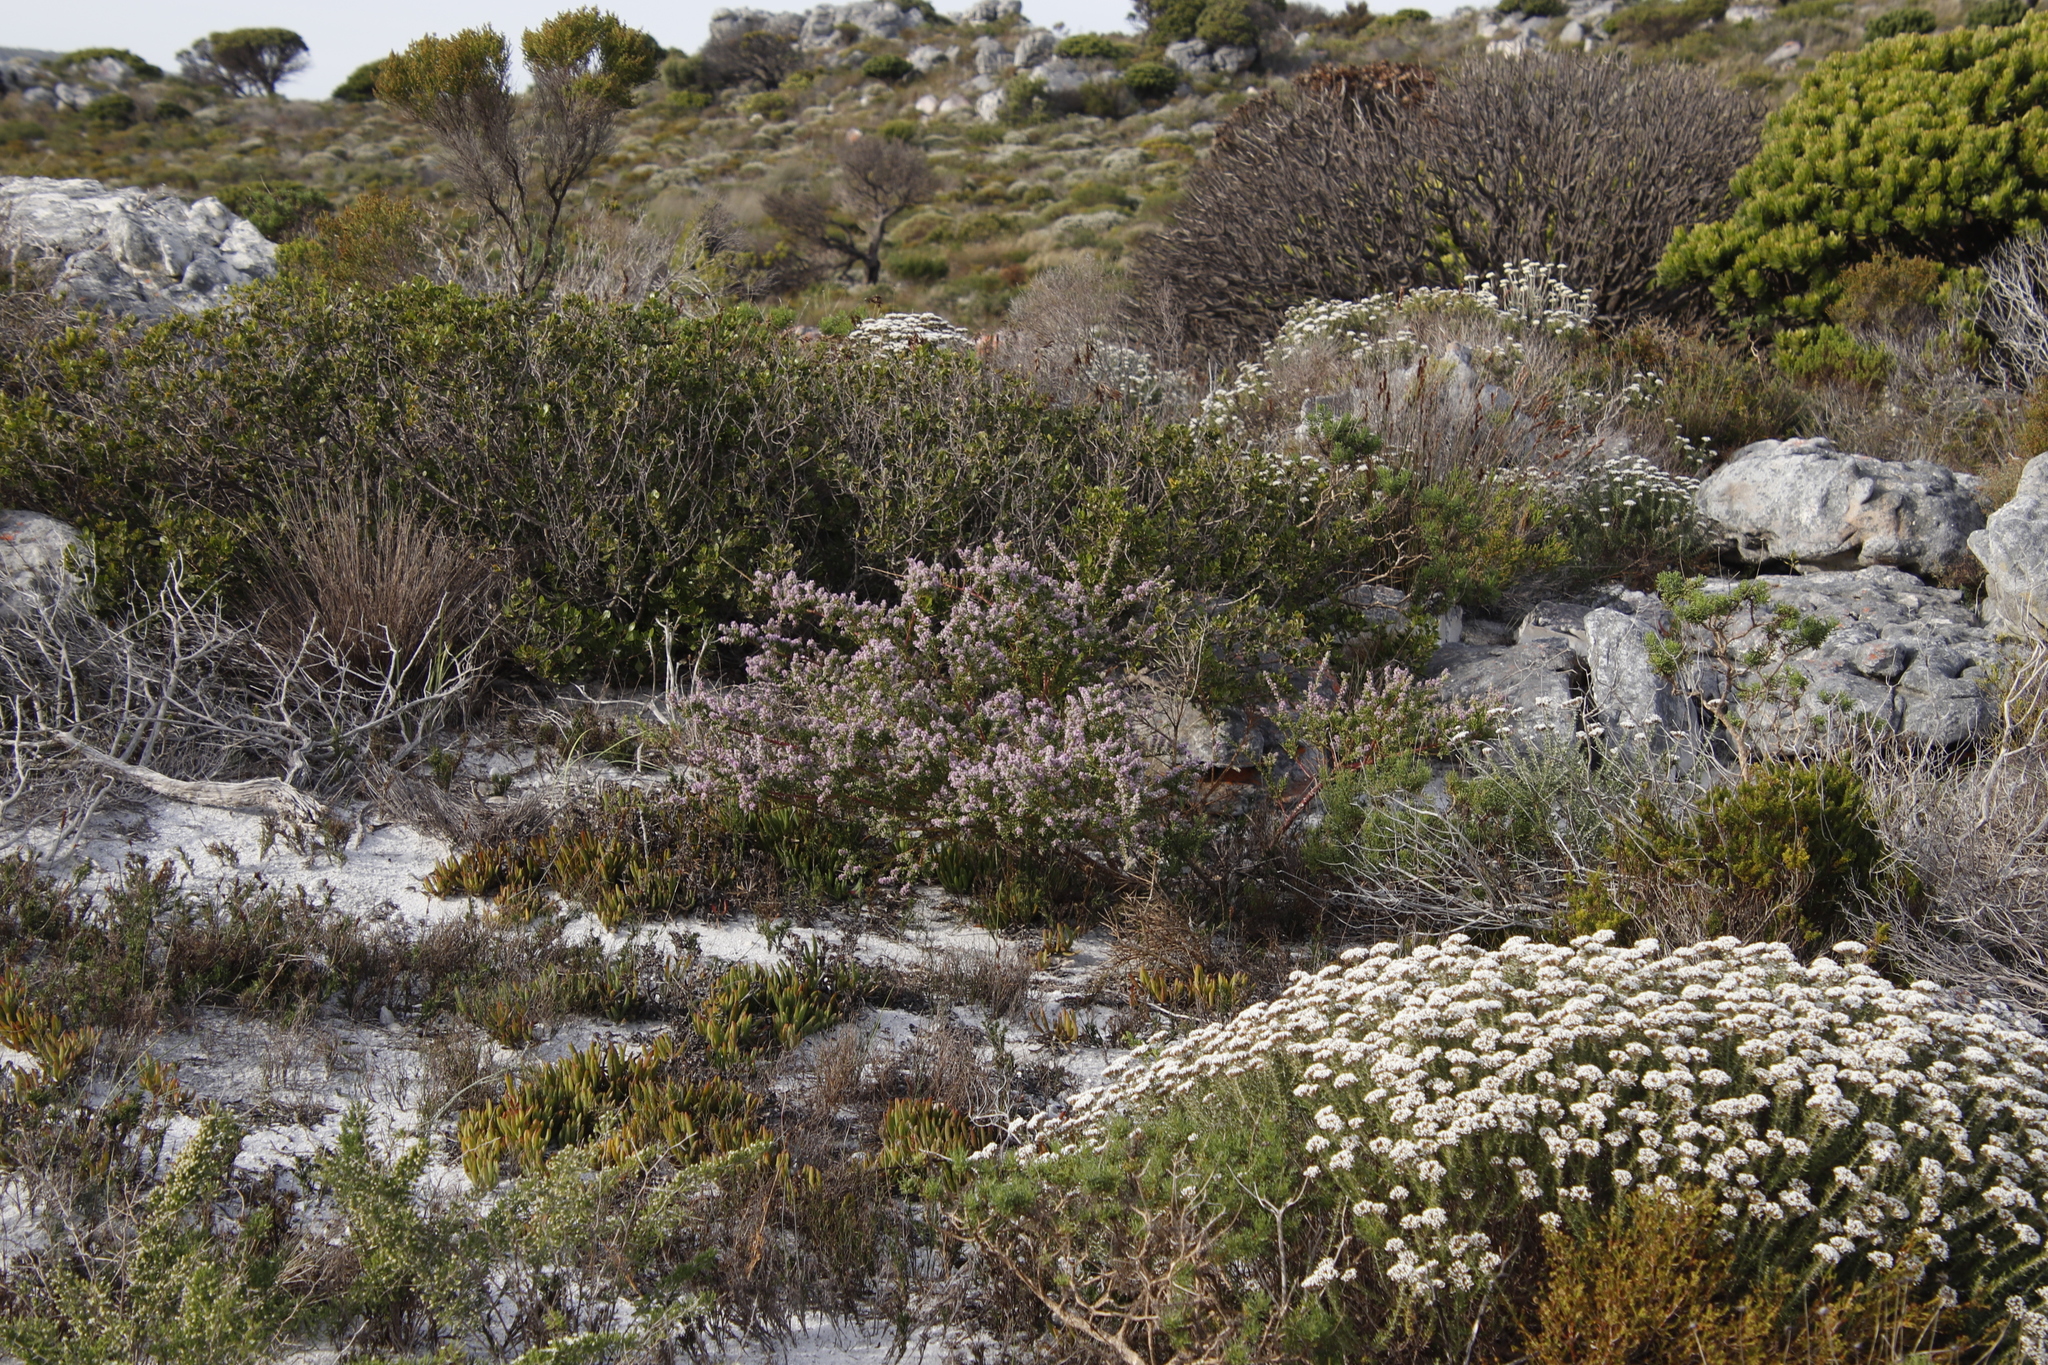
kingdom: Plantae
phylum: Tracheophyta
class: Magnoliopsida
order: Fabales
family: Polygalaceae
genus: Muraltia
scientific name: Muraltia spinosa
